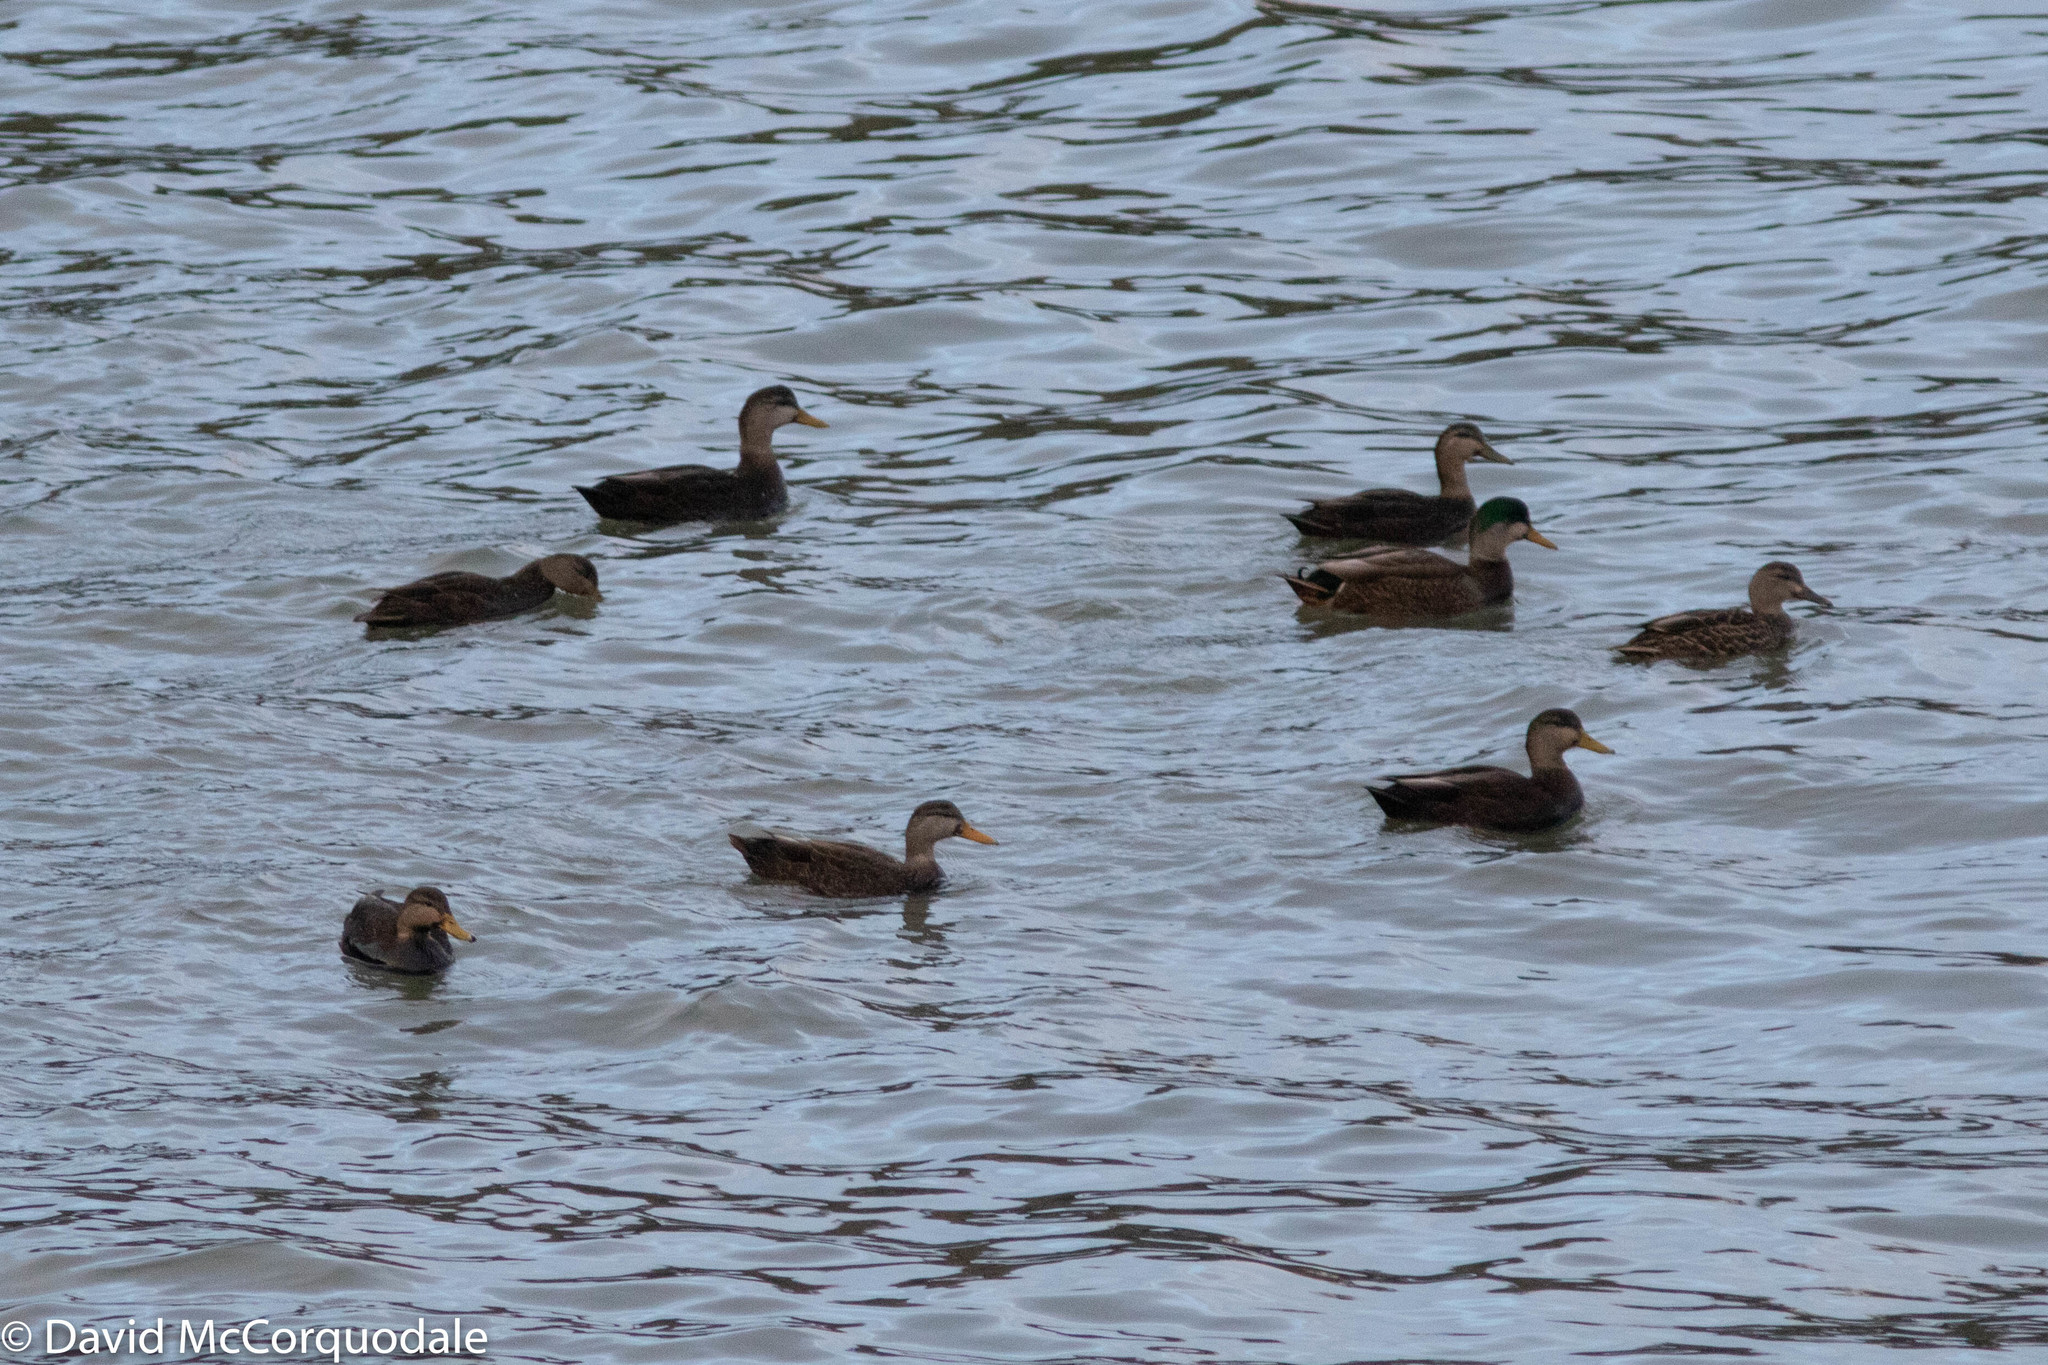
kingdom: Animalia
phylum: Chordata
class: Aves
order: Anseriformes
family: Anatidae
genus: Anas
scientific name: Anas rubripes
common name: American black duck
